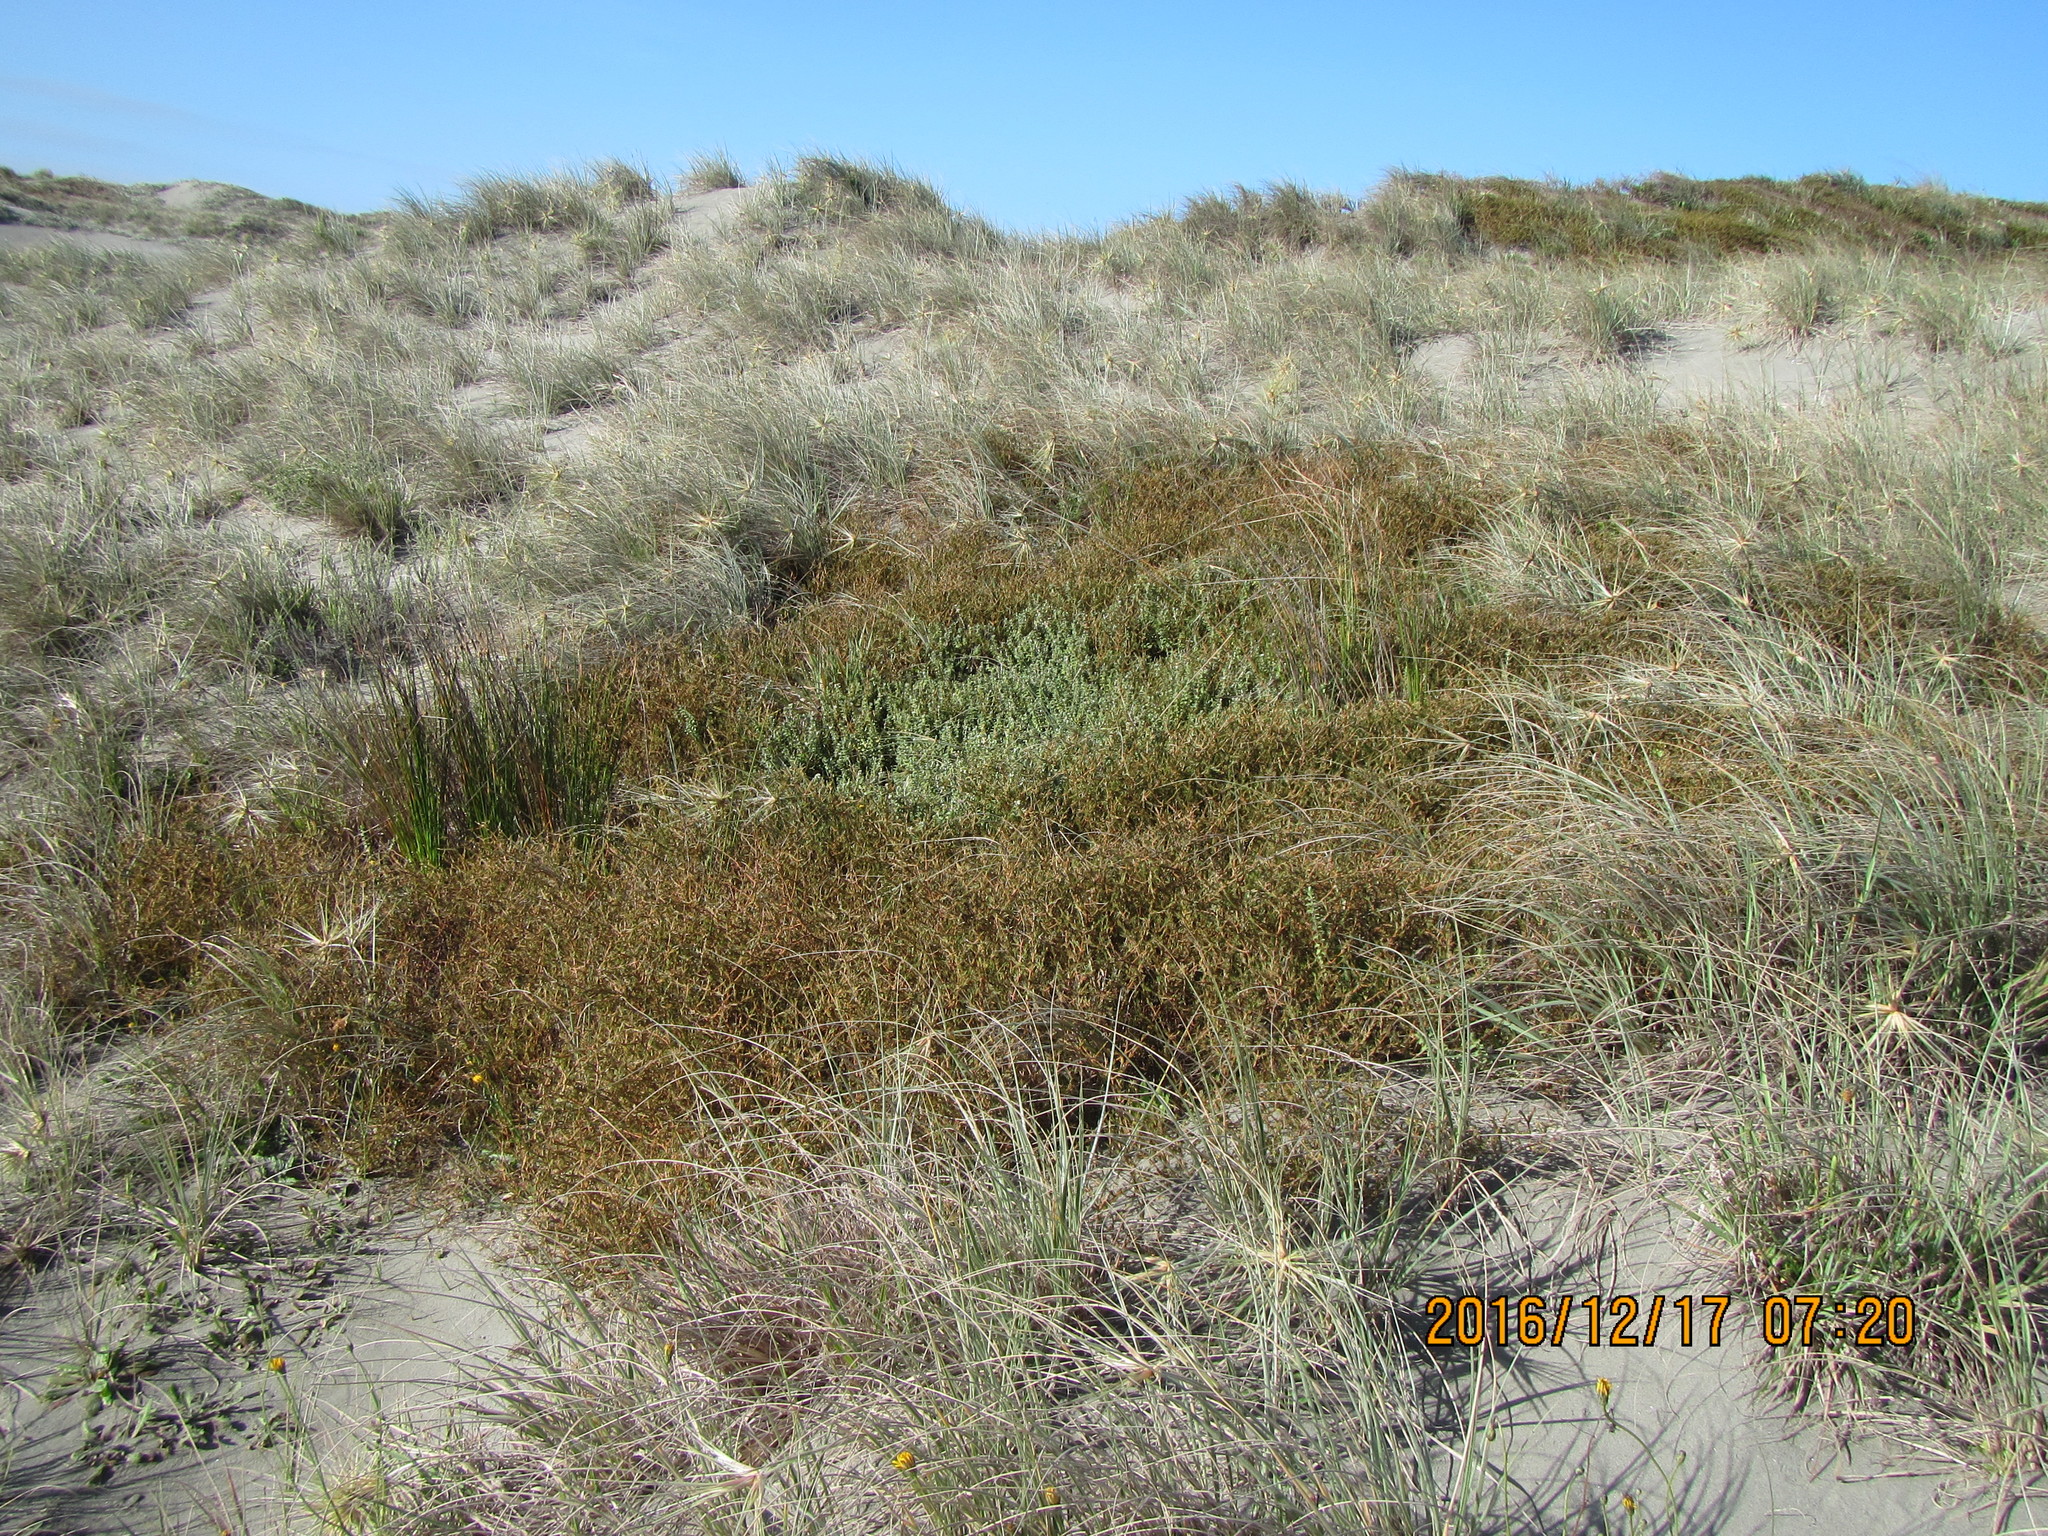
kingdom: Plantae
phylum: Tracheophyta
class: Magnoliopsida
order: Malvales
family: Thymelaeaceae
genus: Pimelea
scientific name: Pimelea villosa
